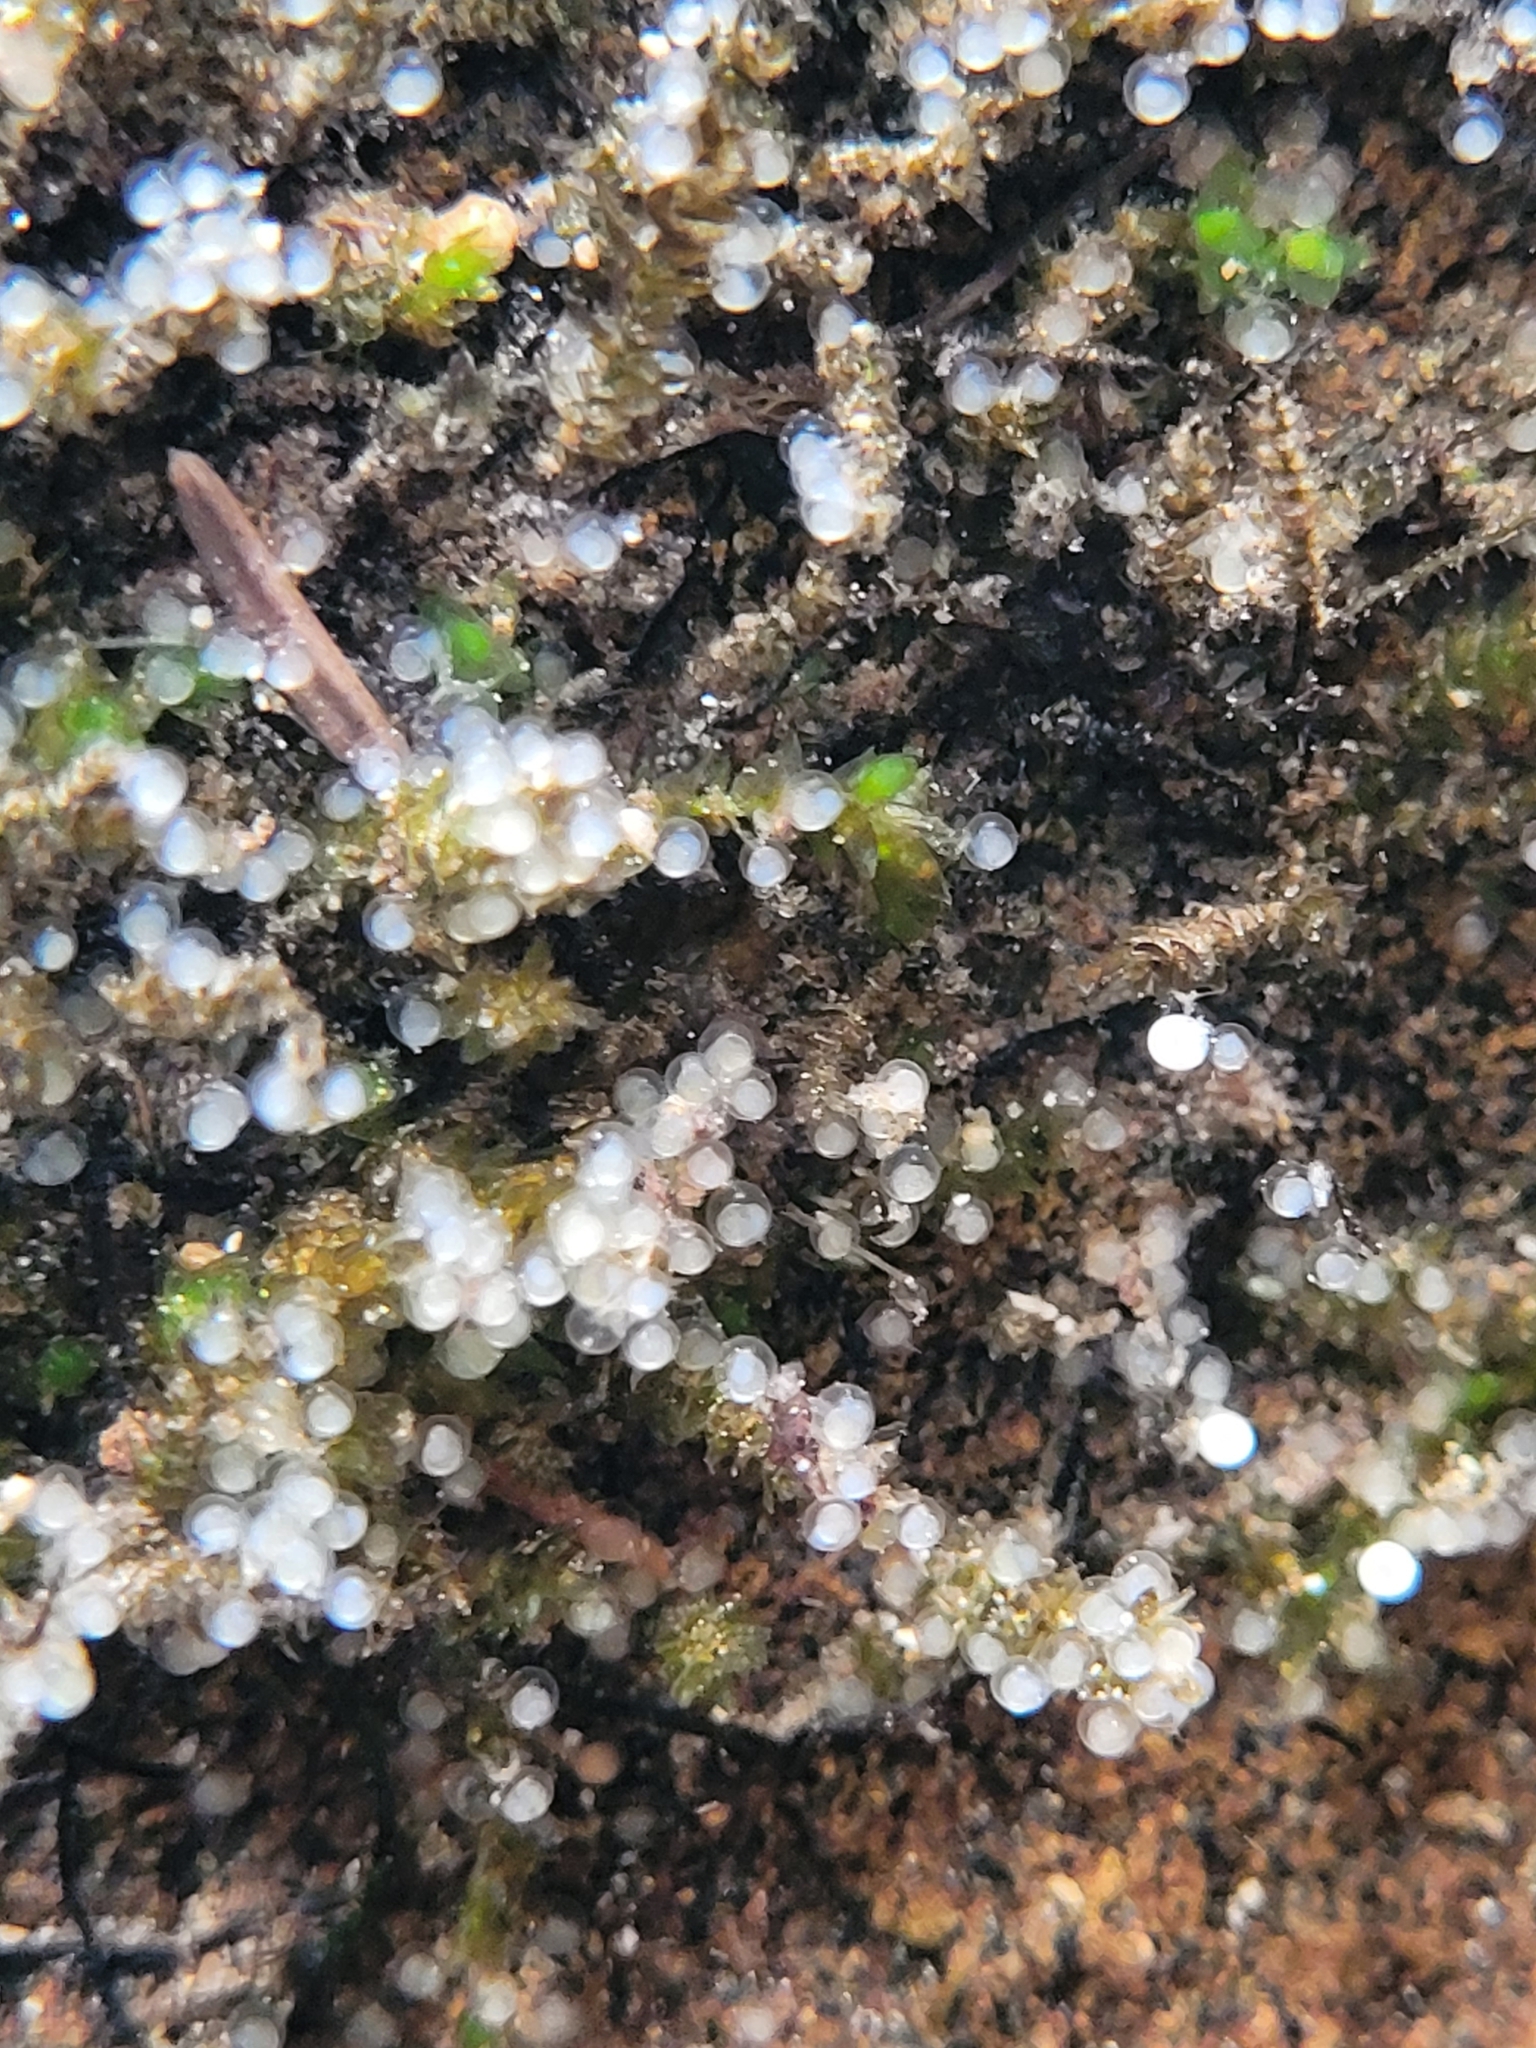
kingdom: Animalia
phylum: Chordata
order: Osmeriformes
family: Osmeridae
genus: Osmerus
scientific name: Osmerus mordax
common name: Rainbow smelt
